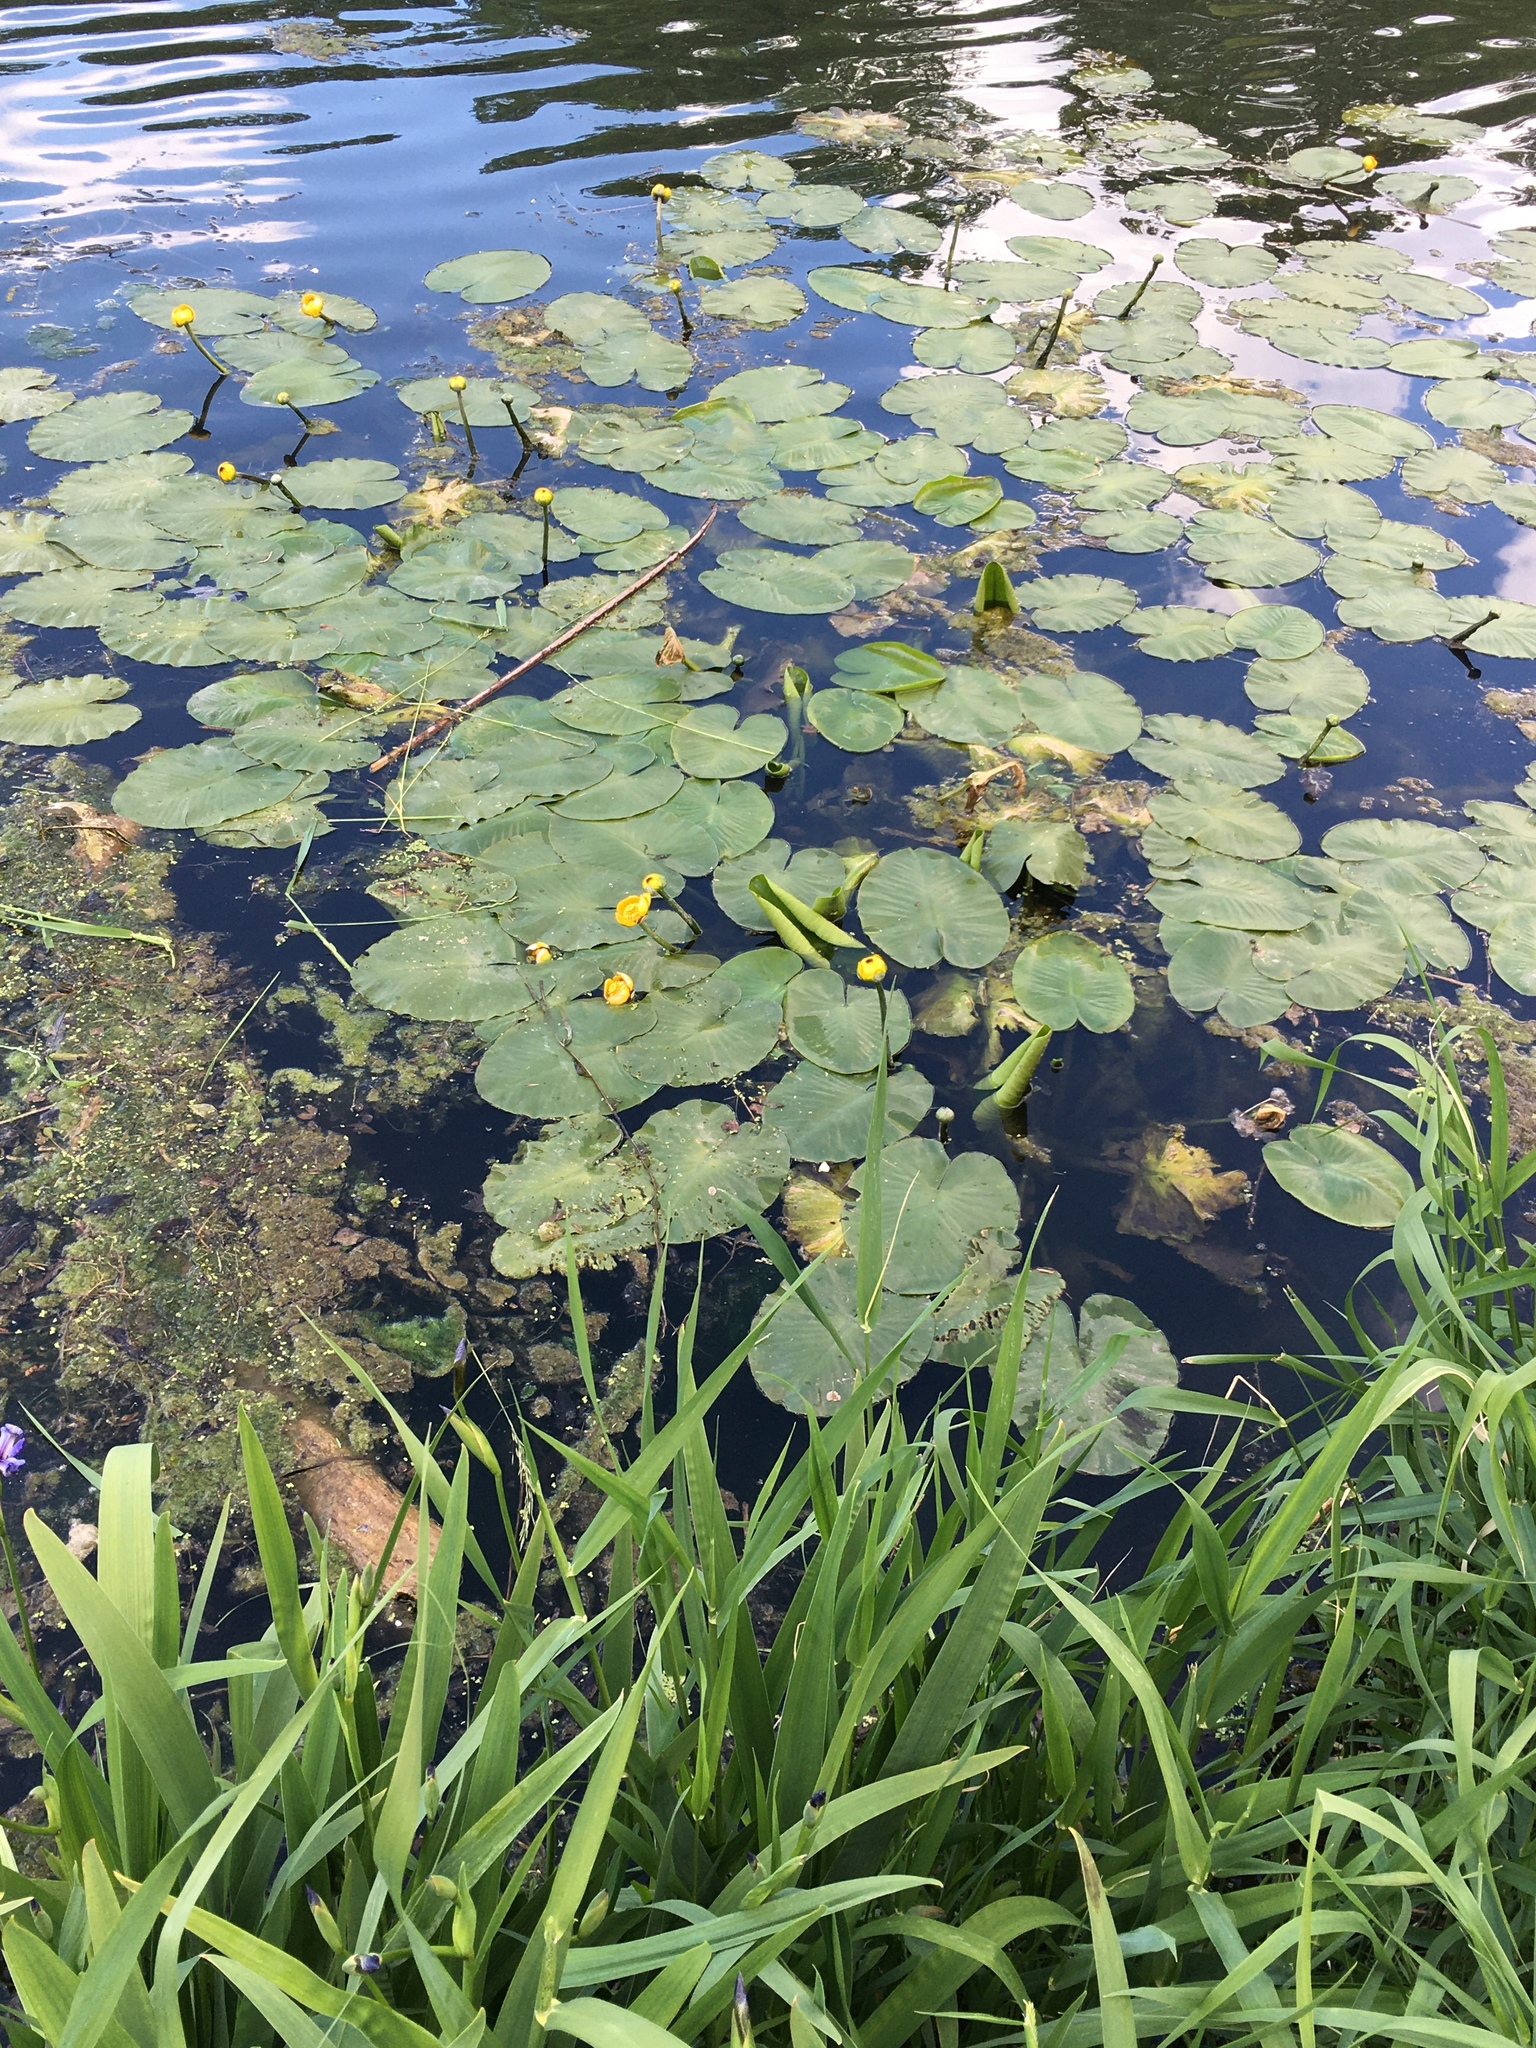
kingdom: Plantae
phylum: Tracheophyta
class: Magnoliopsida
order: Nymphaeales
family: Nymphaeaceae
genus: Nuphar
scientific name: Nuphar variegata
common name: Beaver-root
